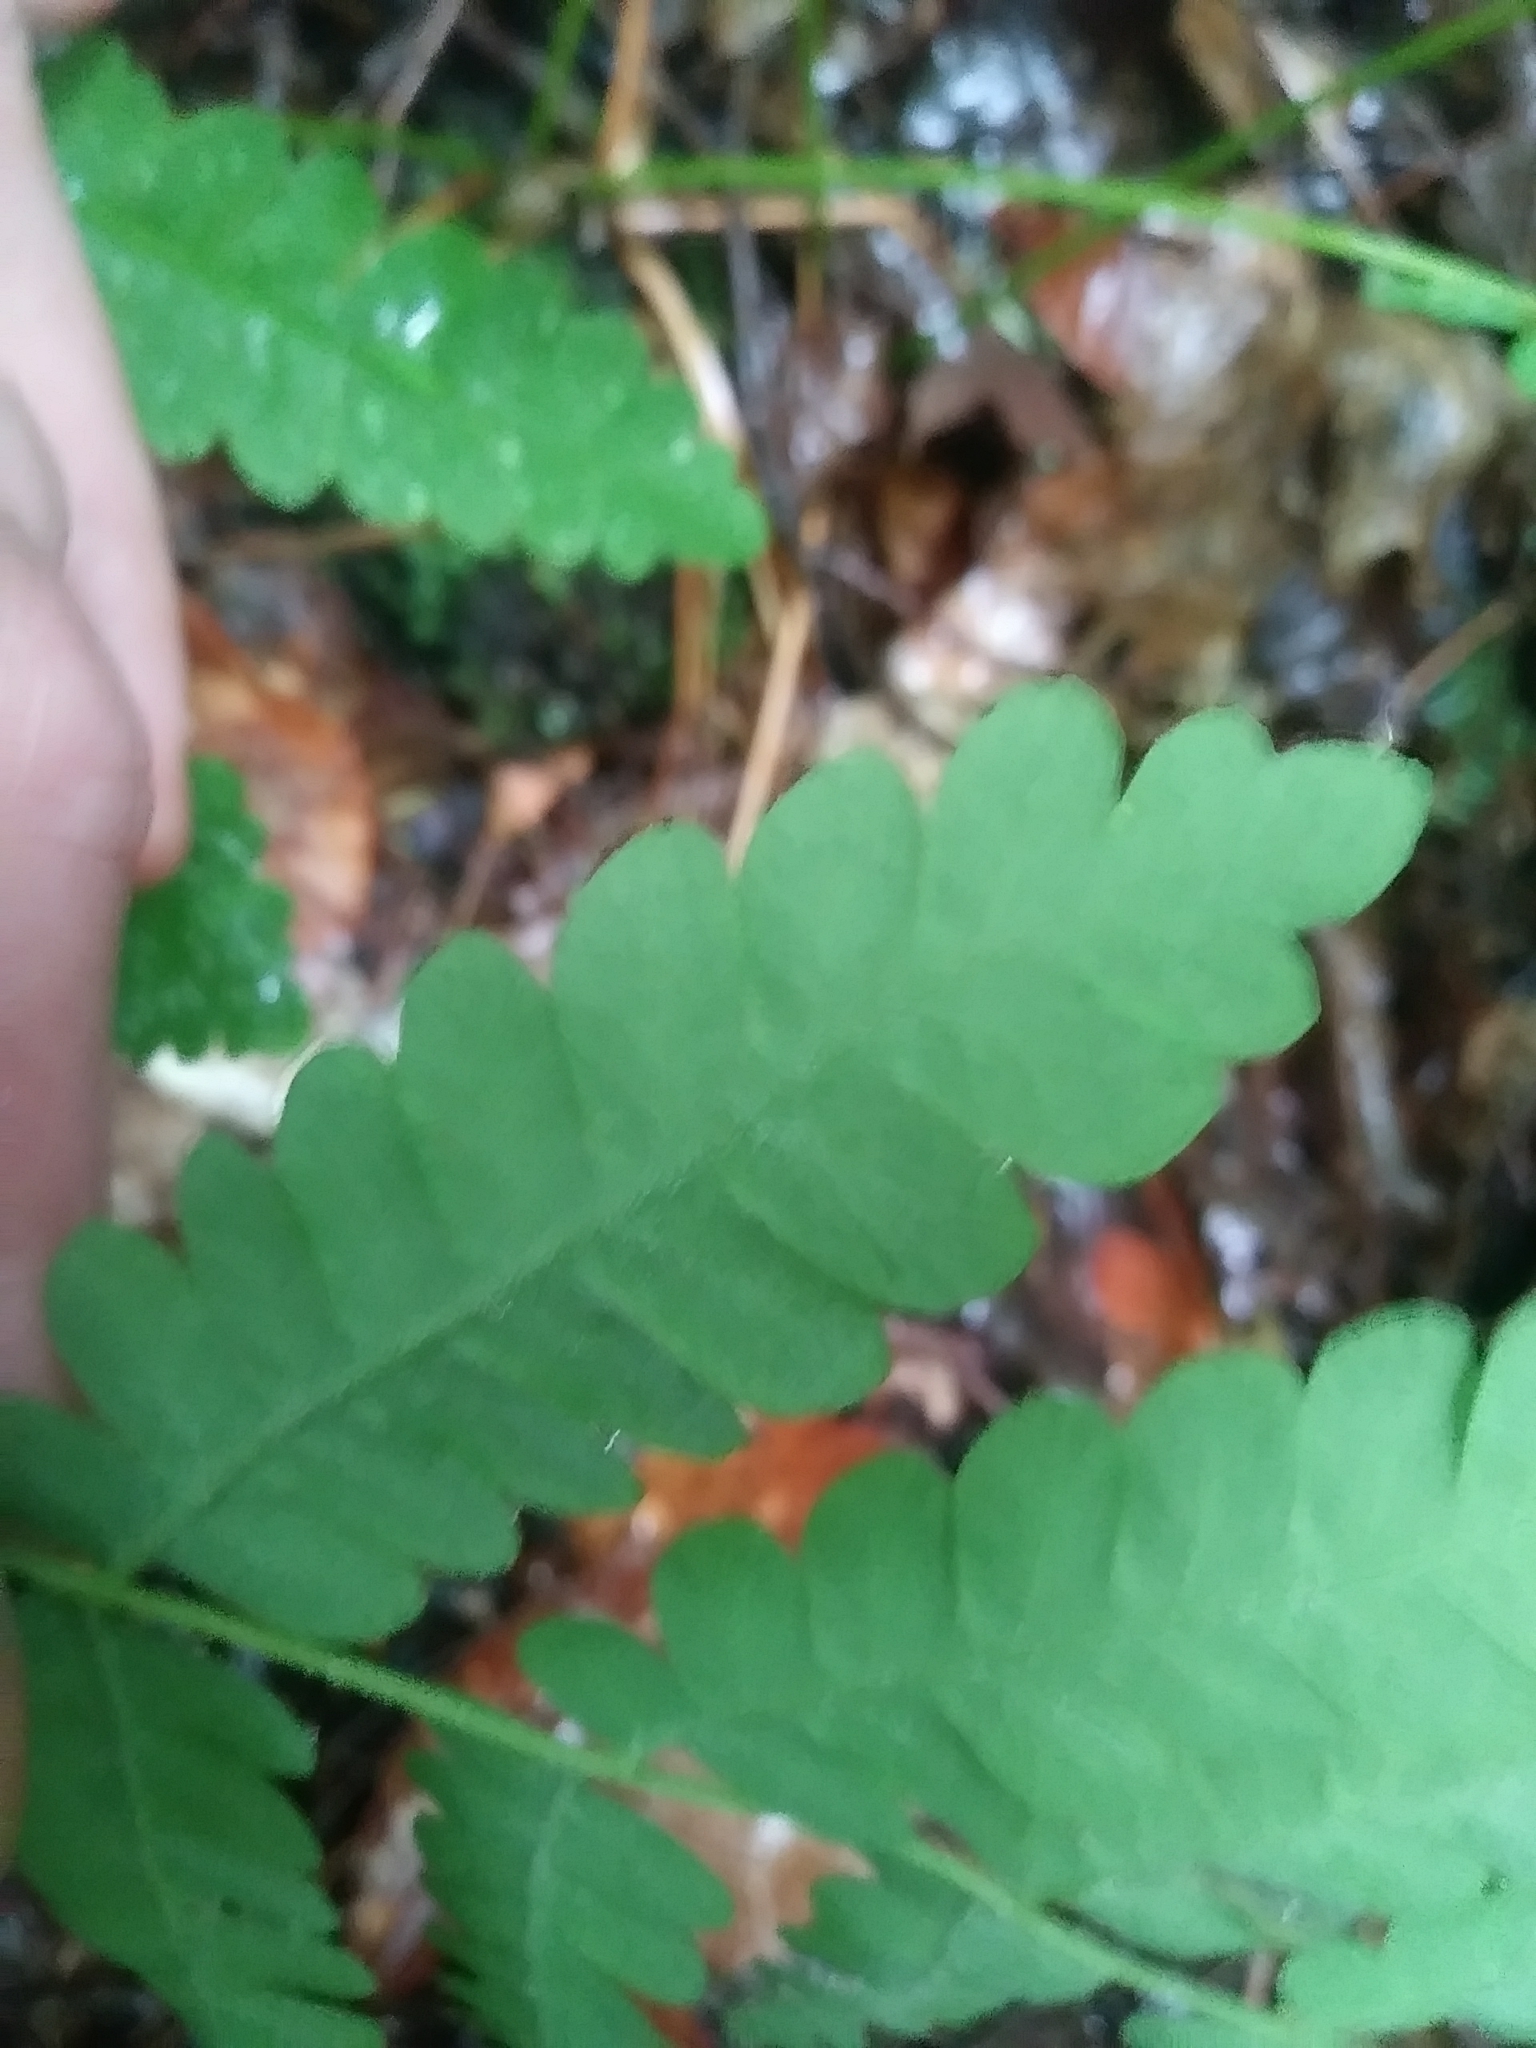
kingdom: Plantae
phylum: Tracheophyta
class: Polypodiopsida
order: Osmundales
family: Osmundaceae
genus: Claytosmunda
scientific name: Claytosmunda claytoniana
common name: Clayton's fern
